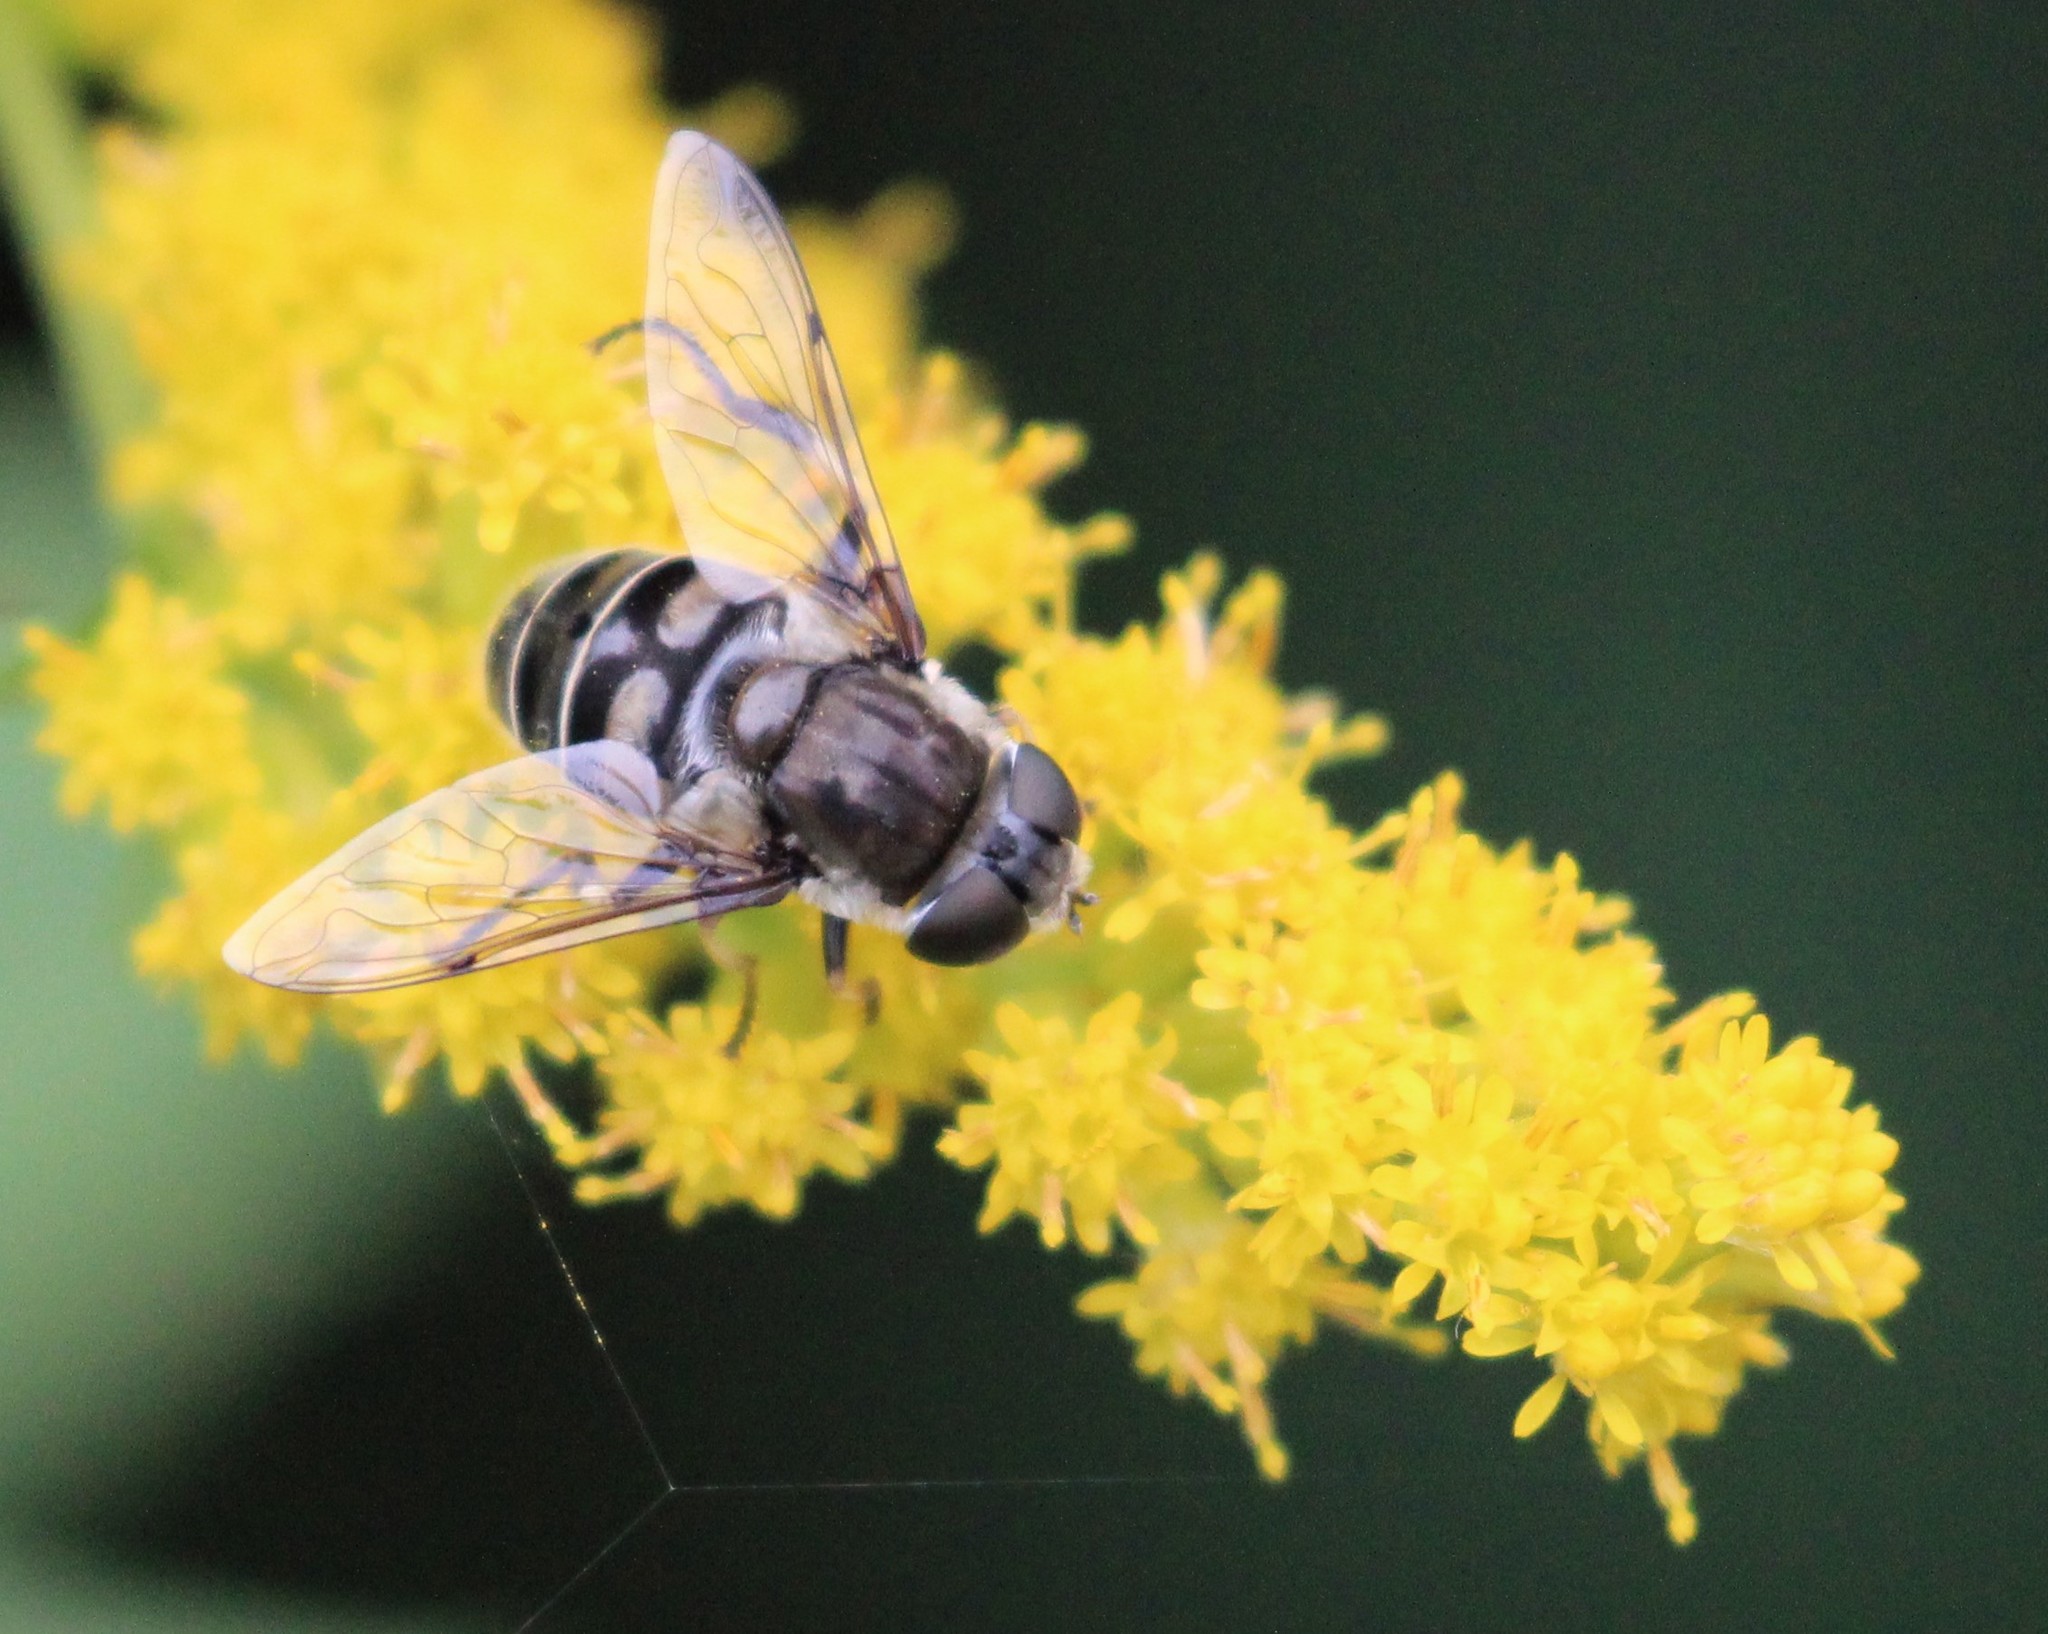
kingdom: Animalia
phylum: Arthropoda
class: Insecta
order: Diptera
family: Syrphidae
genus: Eristalis
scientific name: Eristalis dimidiata
